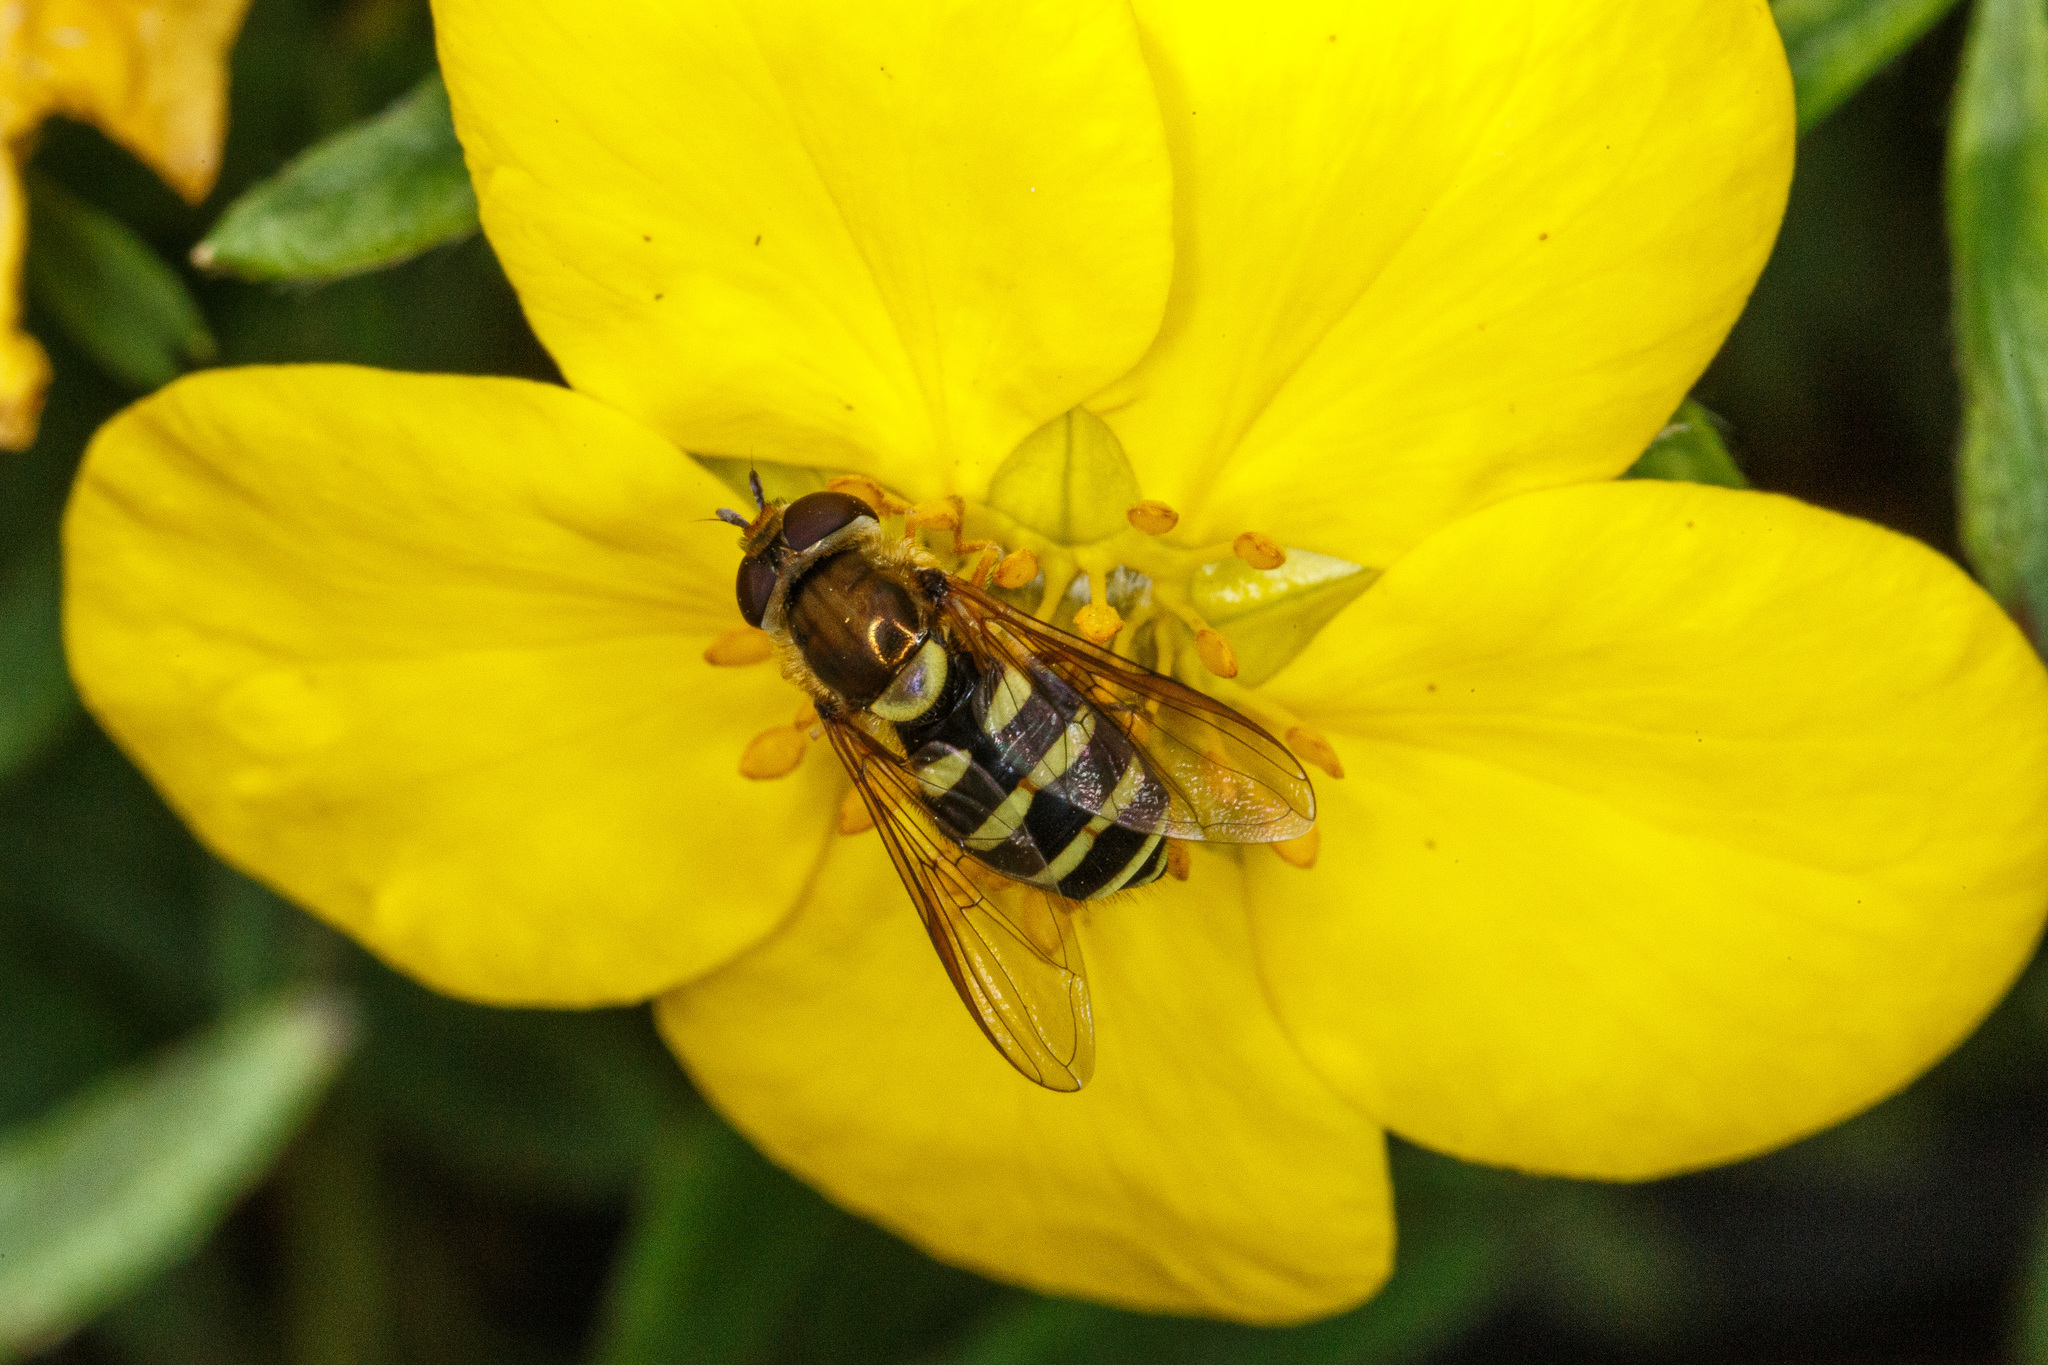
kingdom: Animalia
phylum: Arthropoda
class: Insecta
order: Diptera
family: Syrphidae
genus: Syrphus
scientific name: Syrphus opinator
